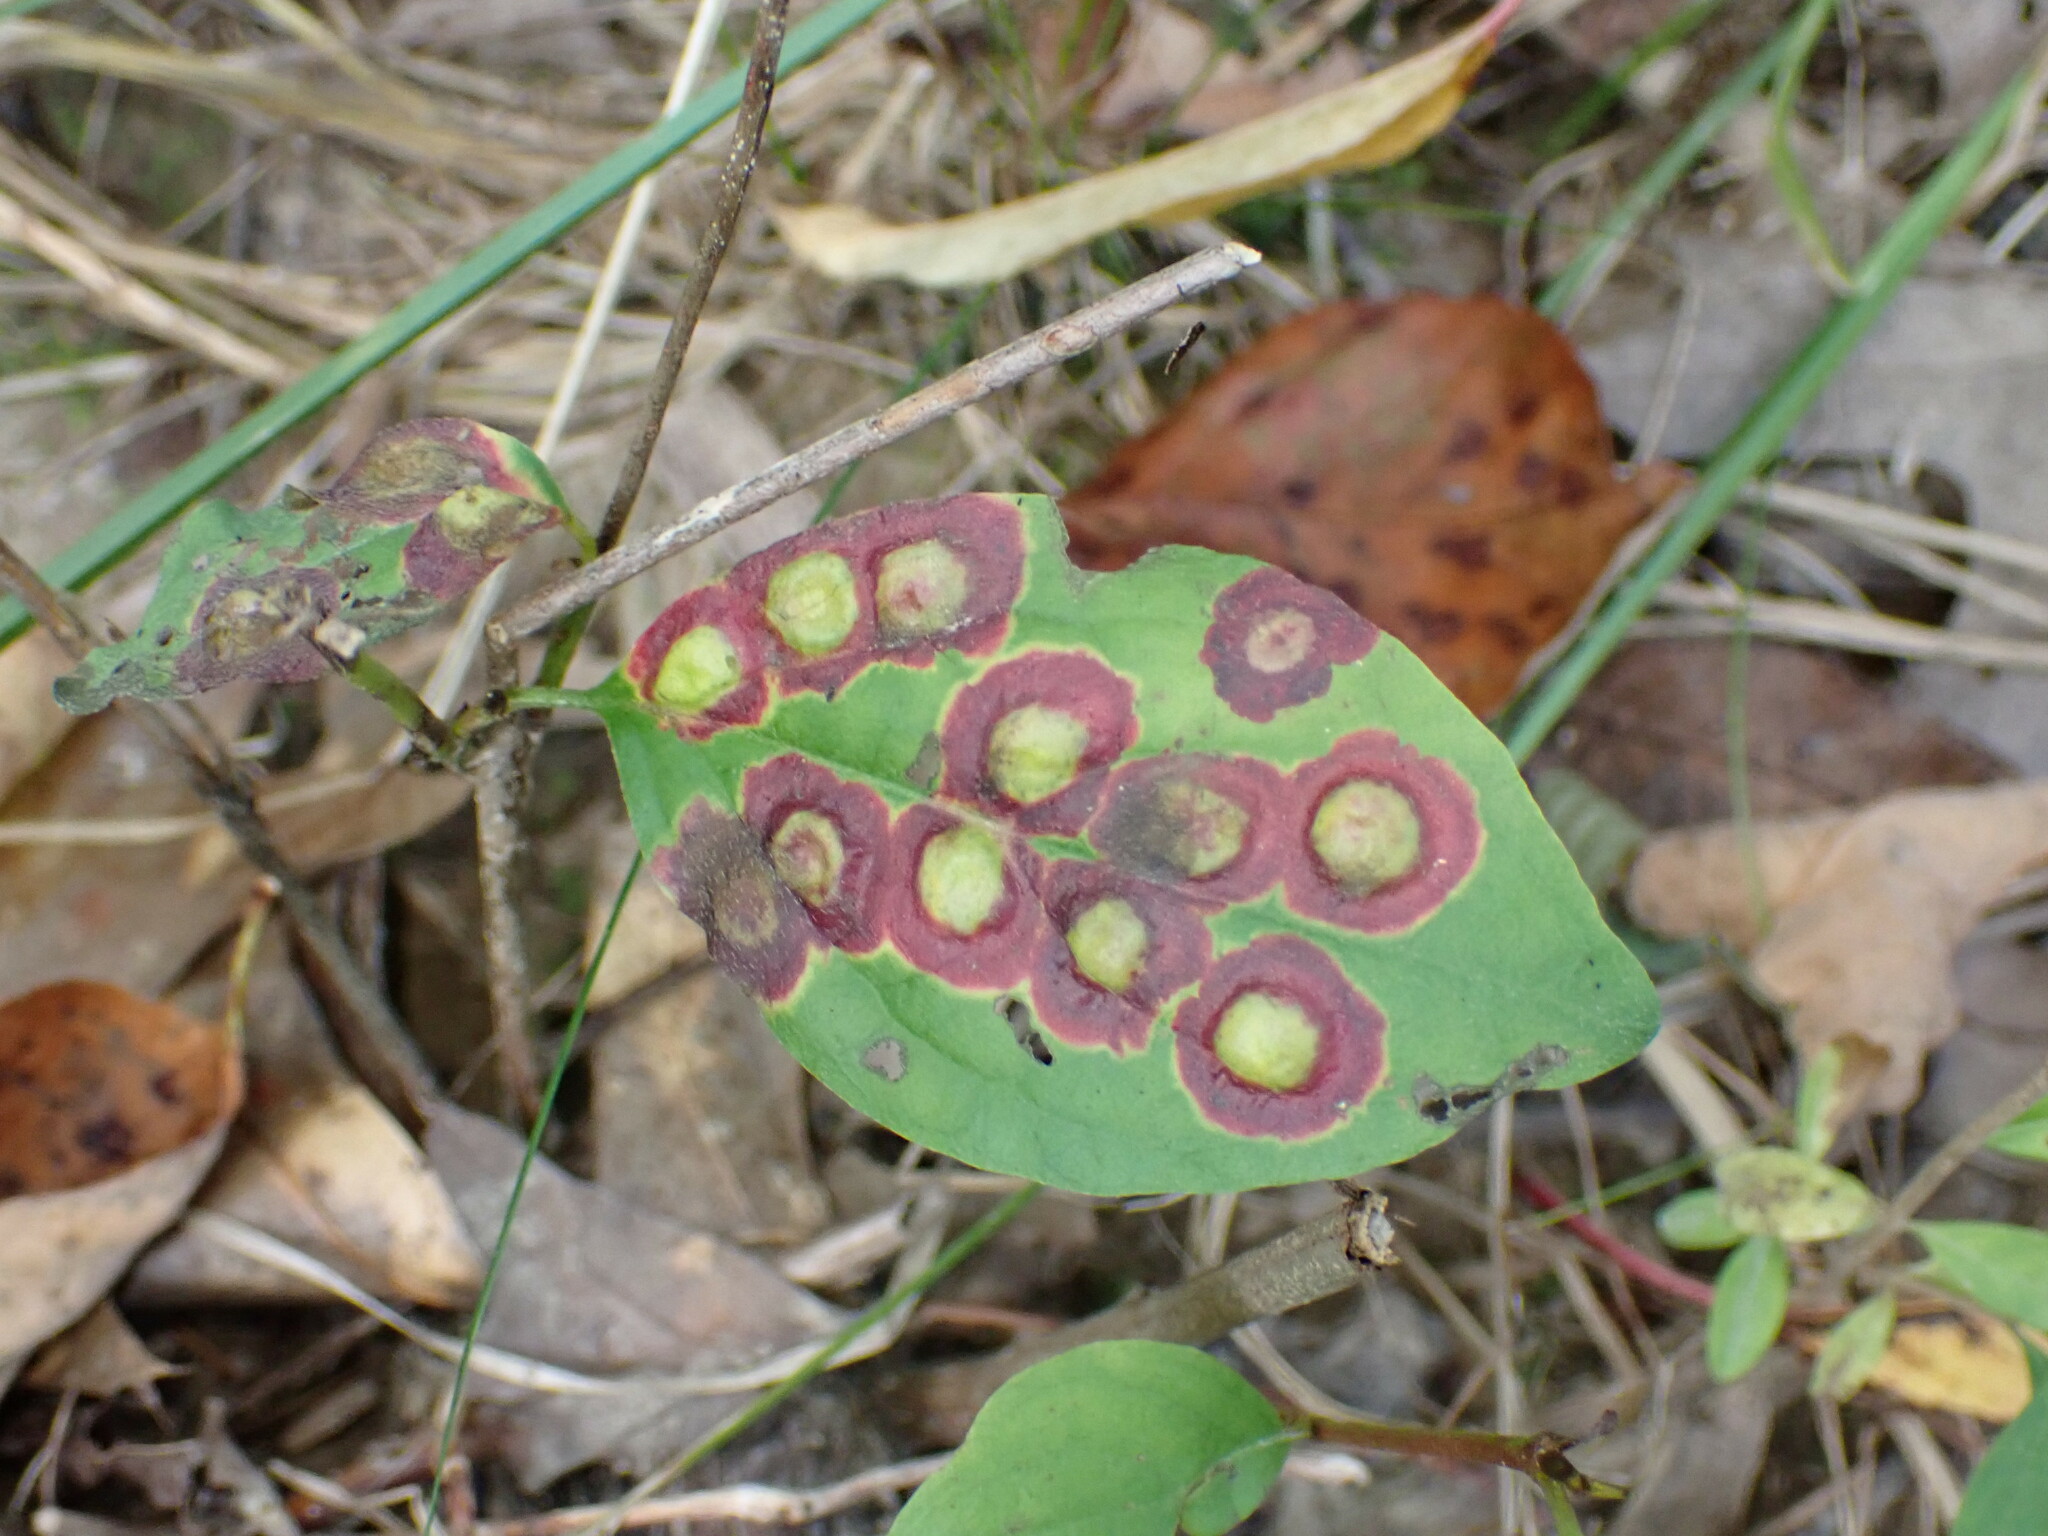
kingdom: Animalia
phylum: Arthropoda
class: Insecta
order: Diptera
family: Cecidomyiidae
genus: Parallelodiplosis
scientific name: Parallelodiplosis subtruncata
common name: Dogwood eyespot gall midge
